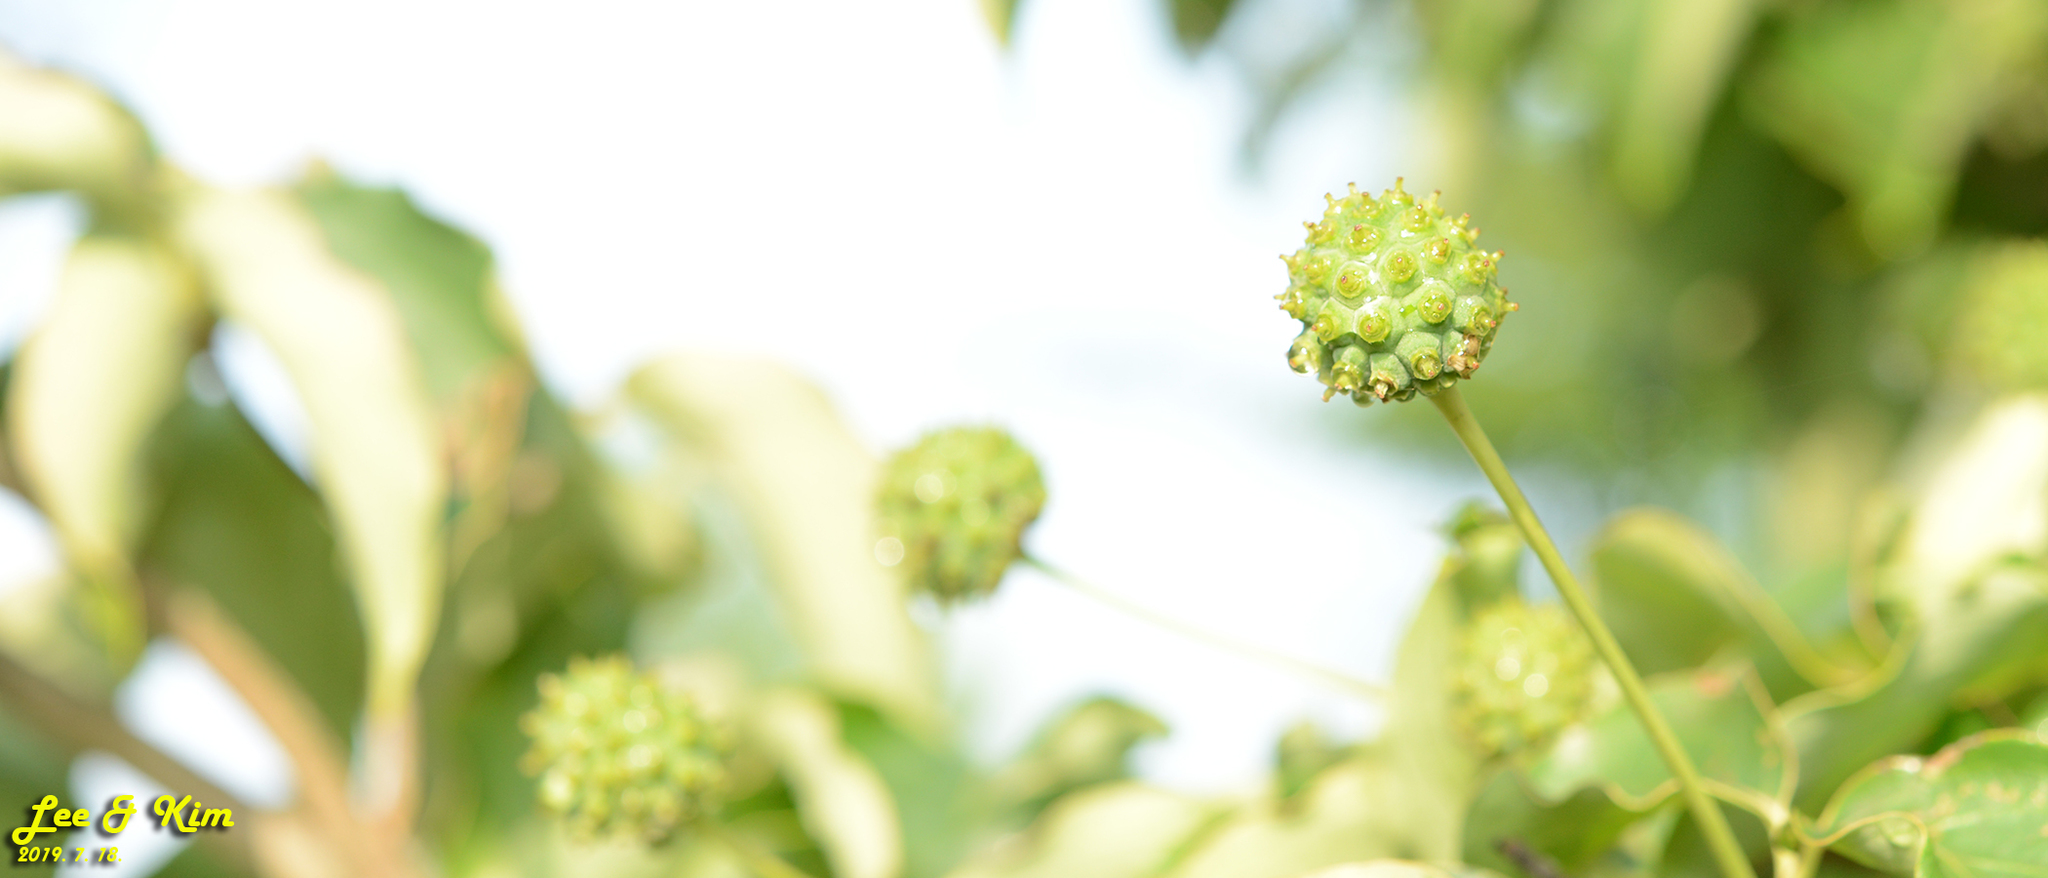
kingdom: Plantae
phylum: Tracheophyta
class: Magnoliopsida
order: Cornales
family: Cornaceae
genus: Cornus
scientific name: Cornus kousa
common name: Japanese dogwood
